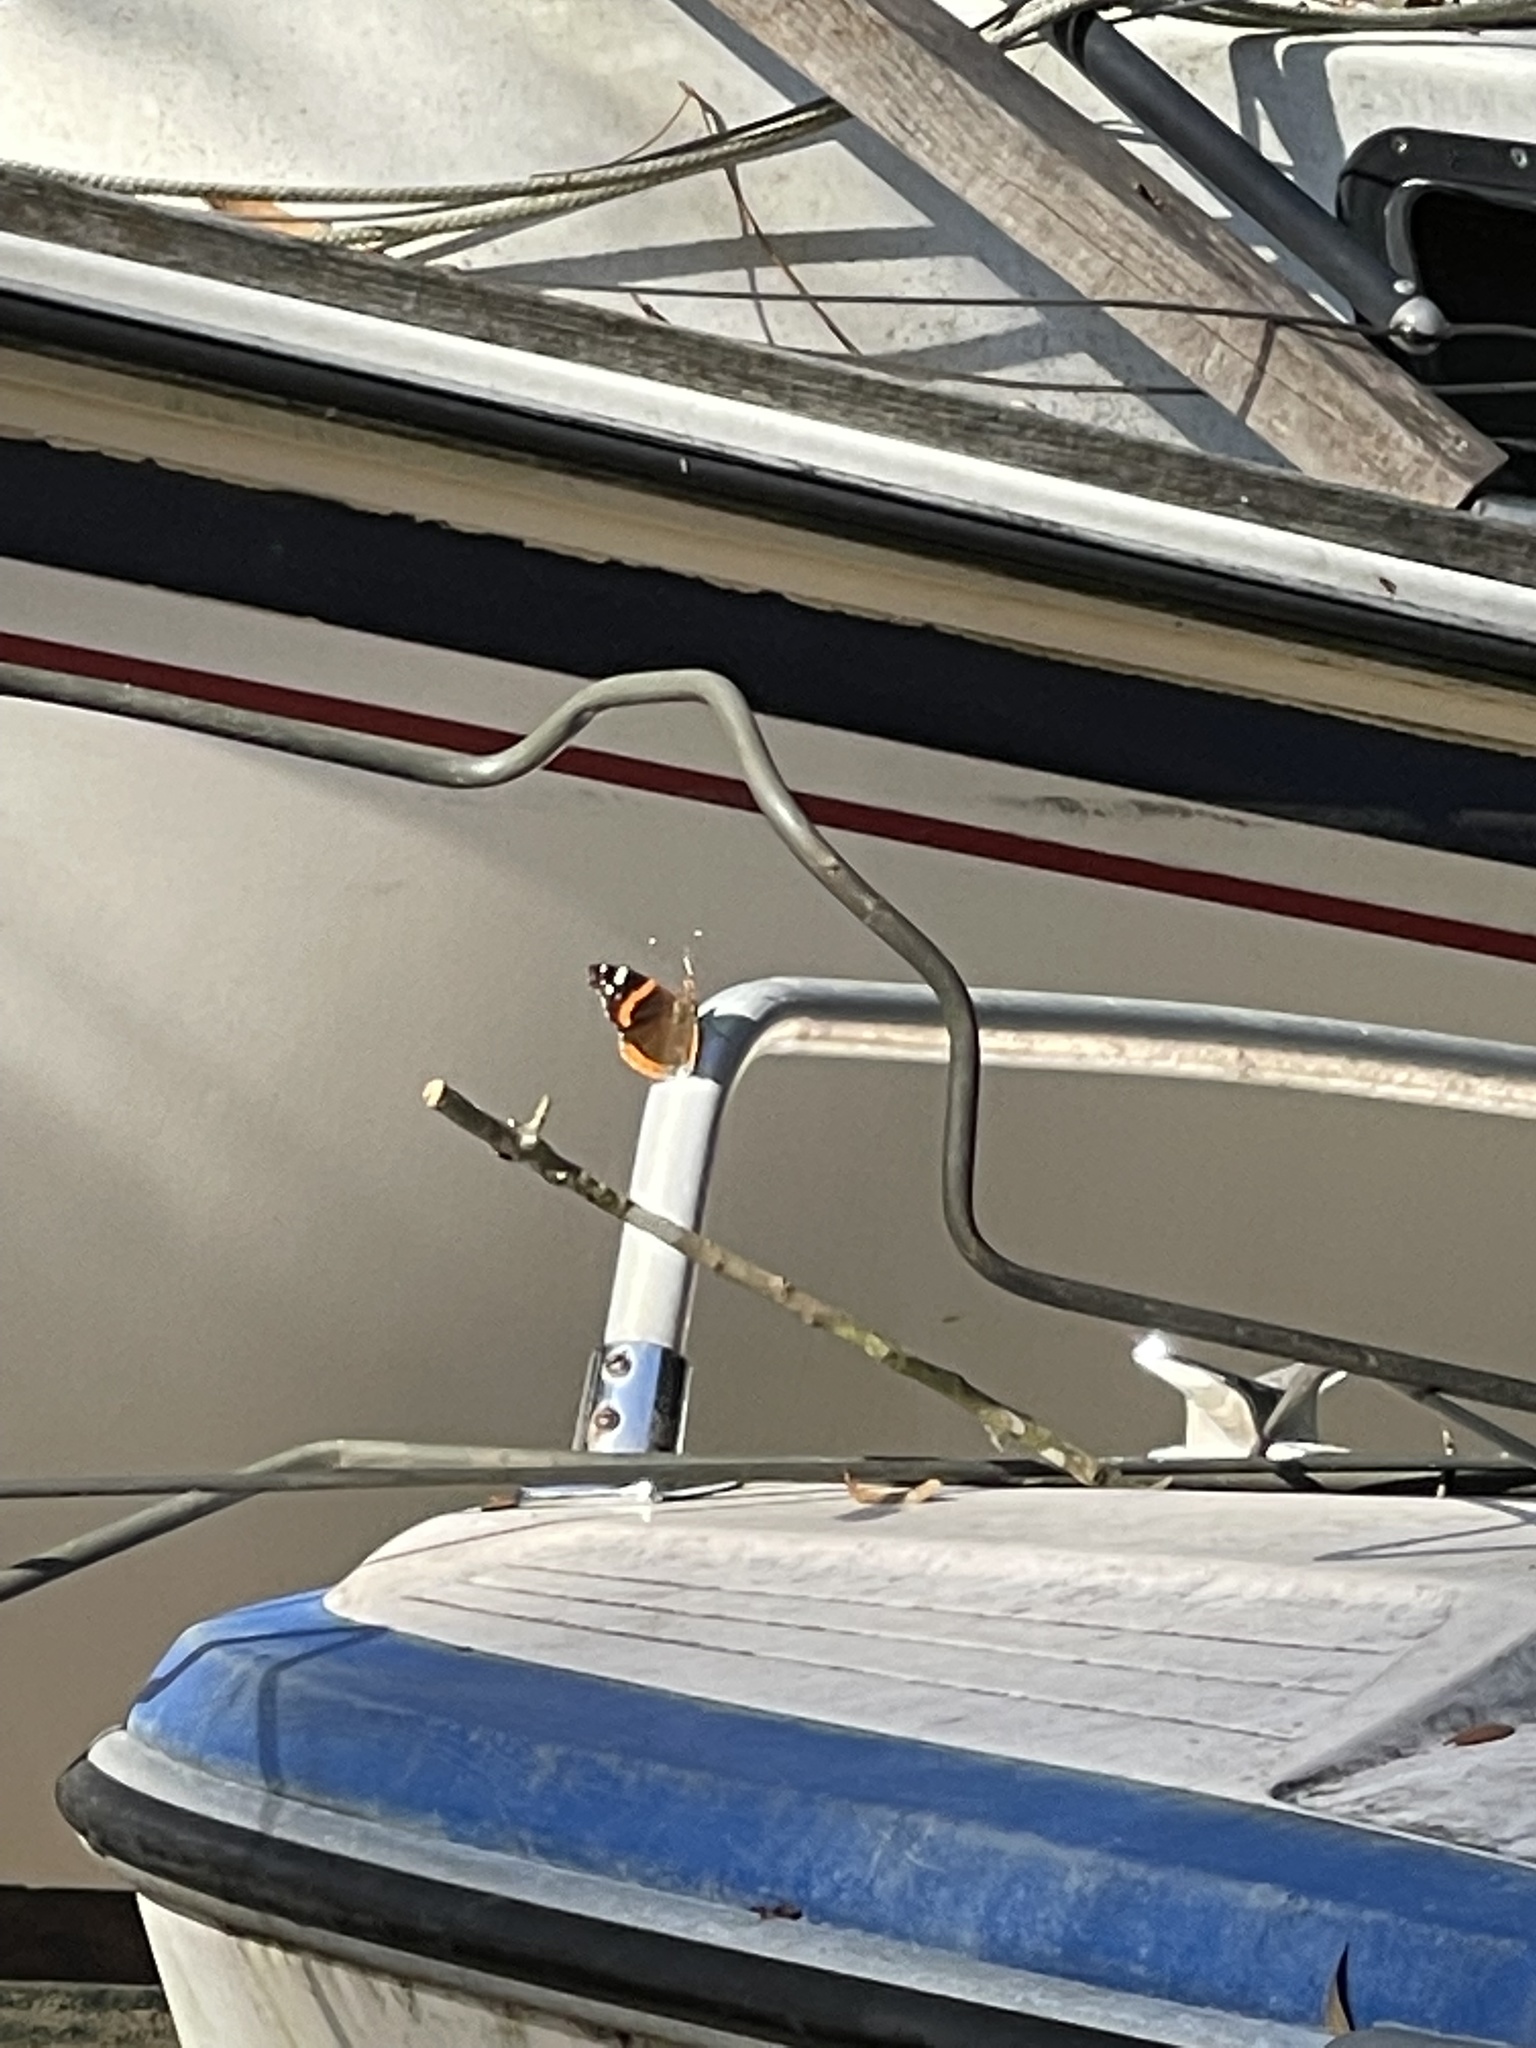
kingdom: Animalia
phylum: Arthropoda
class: Insecta
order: Lepidoptera
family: Nymphalidae
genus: Vanessa
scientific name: Vanessa atalanta
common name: Red admiral
